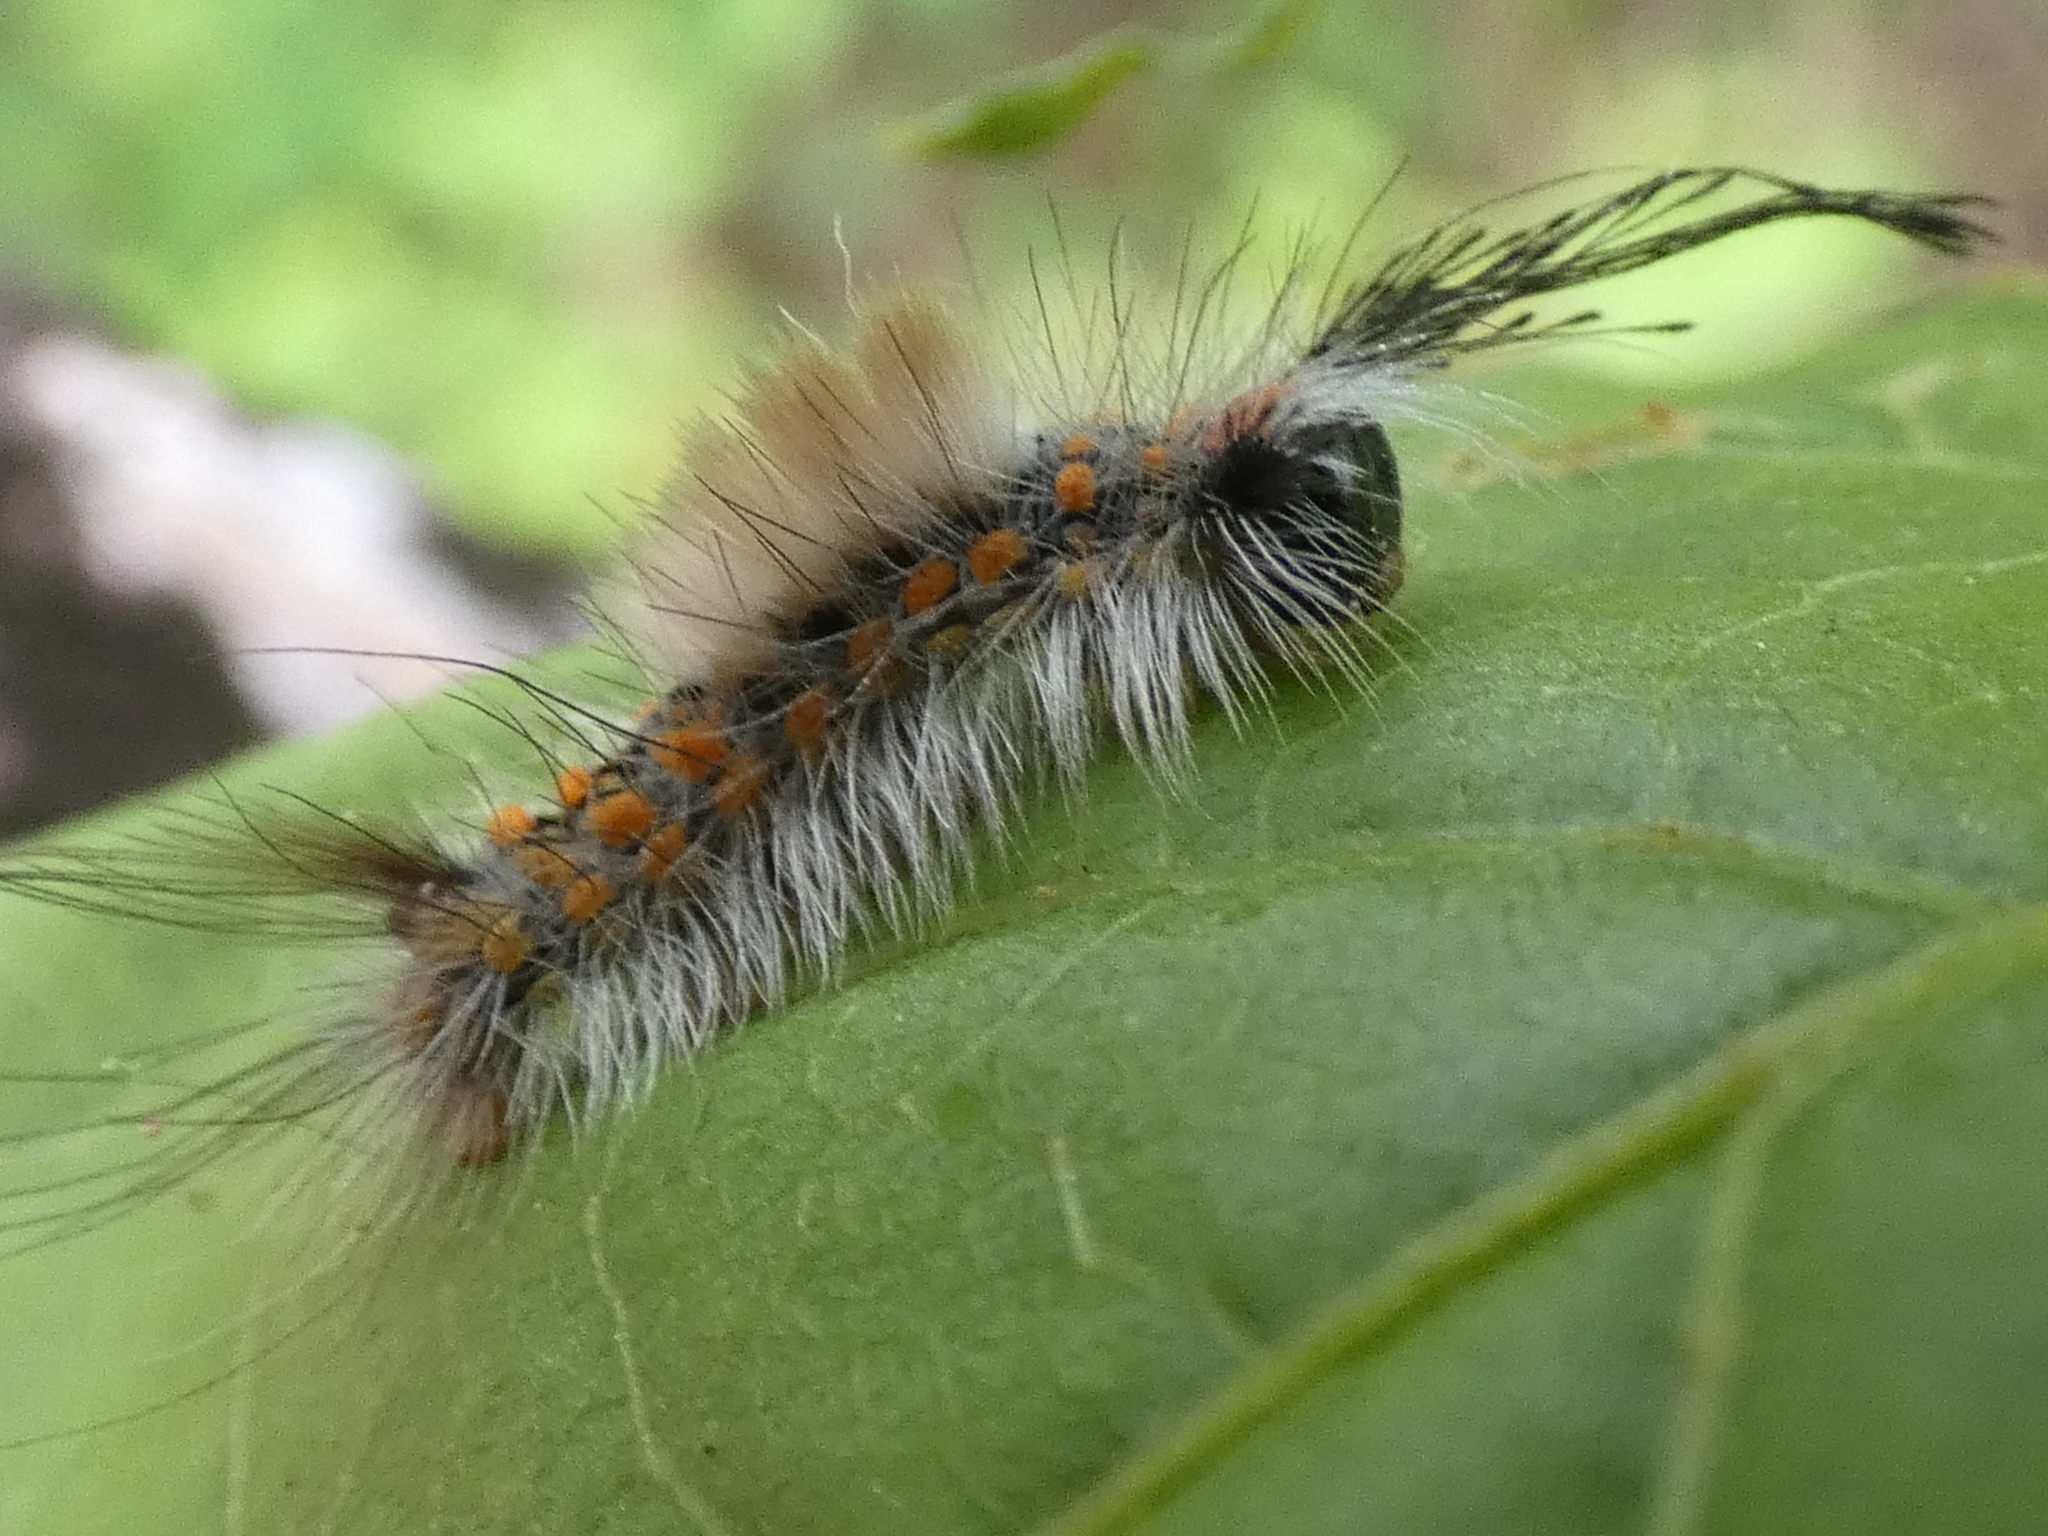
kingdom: Animalia
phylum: Arthropoda
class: Insecta
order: Lepidoptera
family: Erebidae
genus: Orgyia
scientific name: Orgyia detrita
